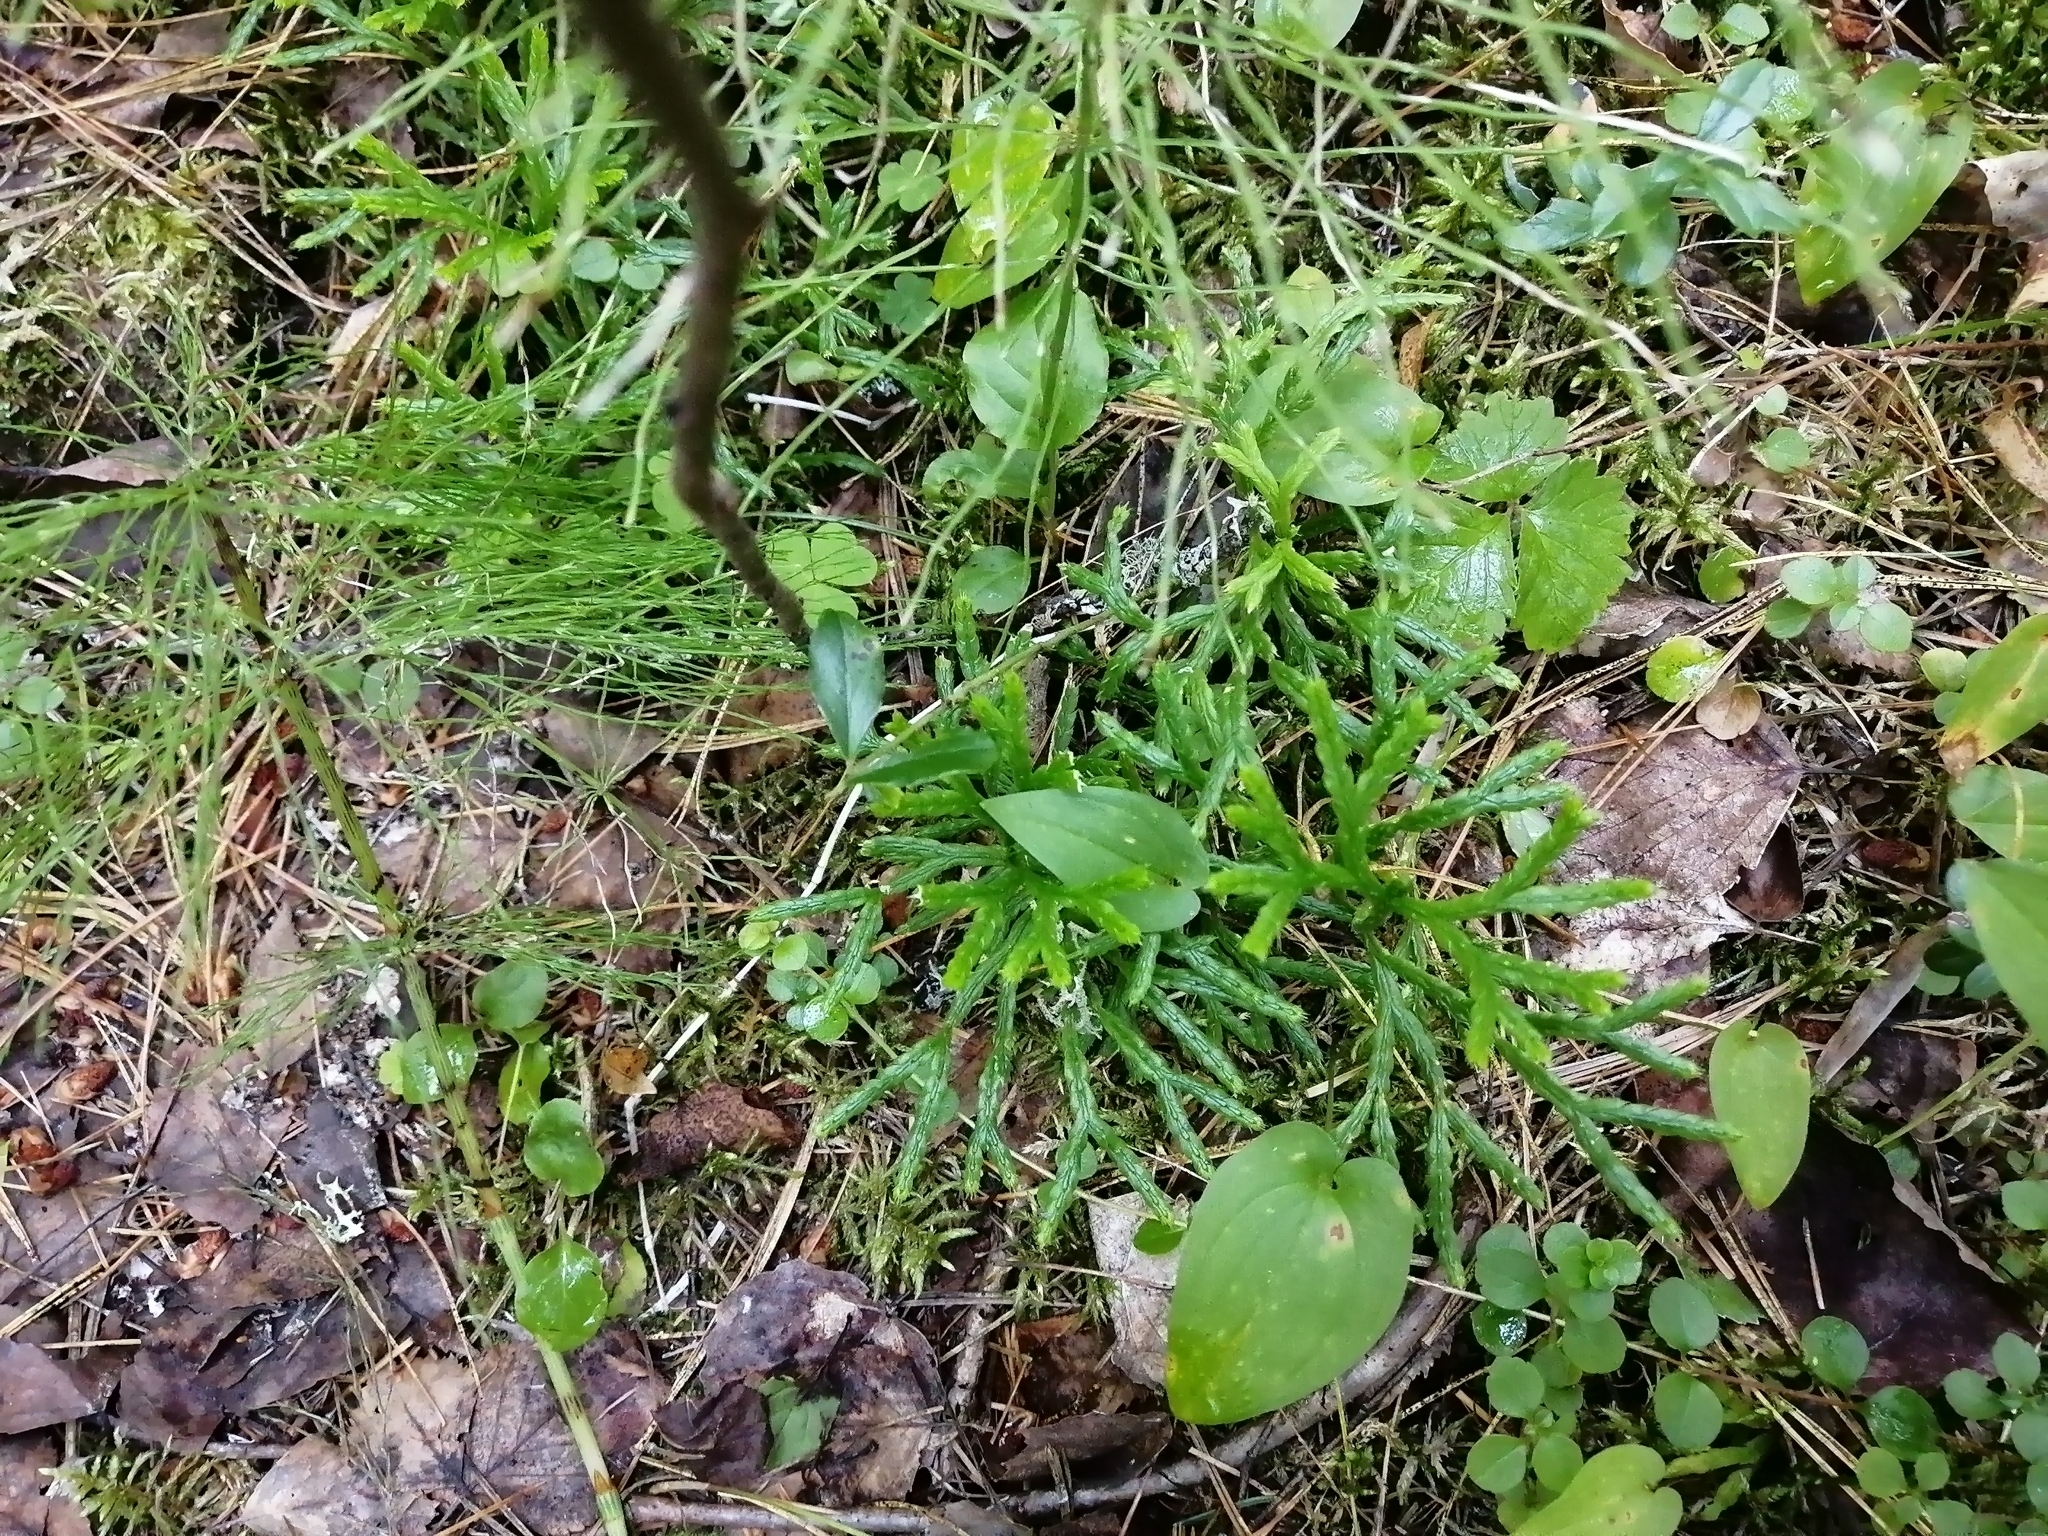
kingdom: Plantae
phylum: Tracheophyta
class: Lycopodiopsida
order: Lycopodiales
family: Lycopodiaceae
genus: Diphasiastrum
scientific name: Diphasiastrum complanatum
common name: Northern running-pine
